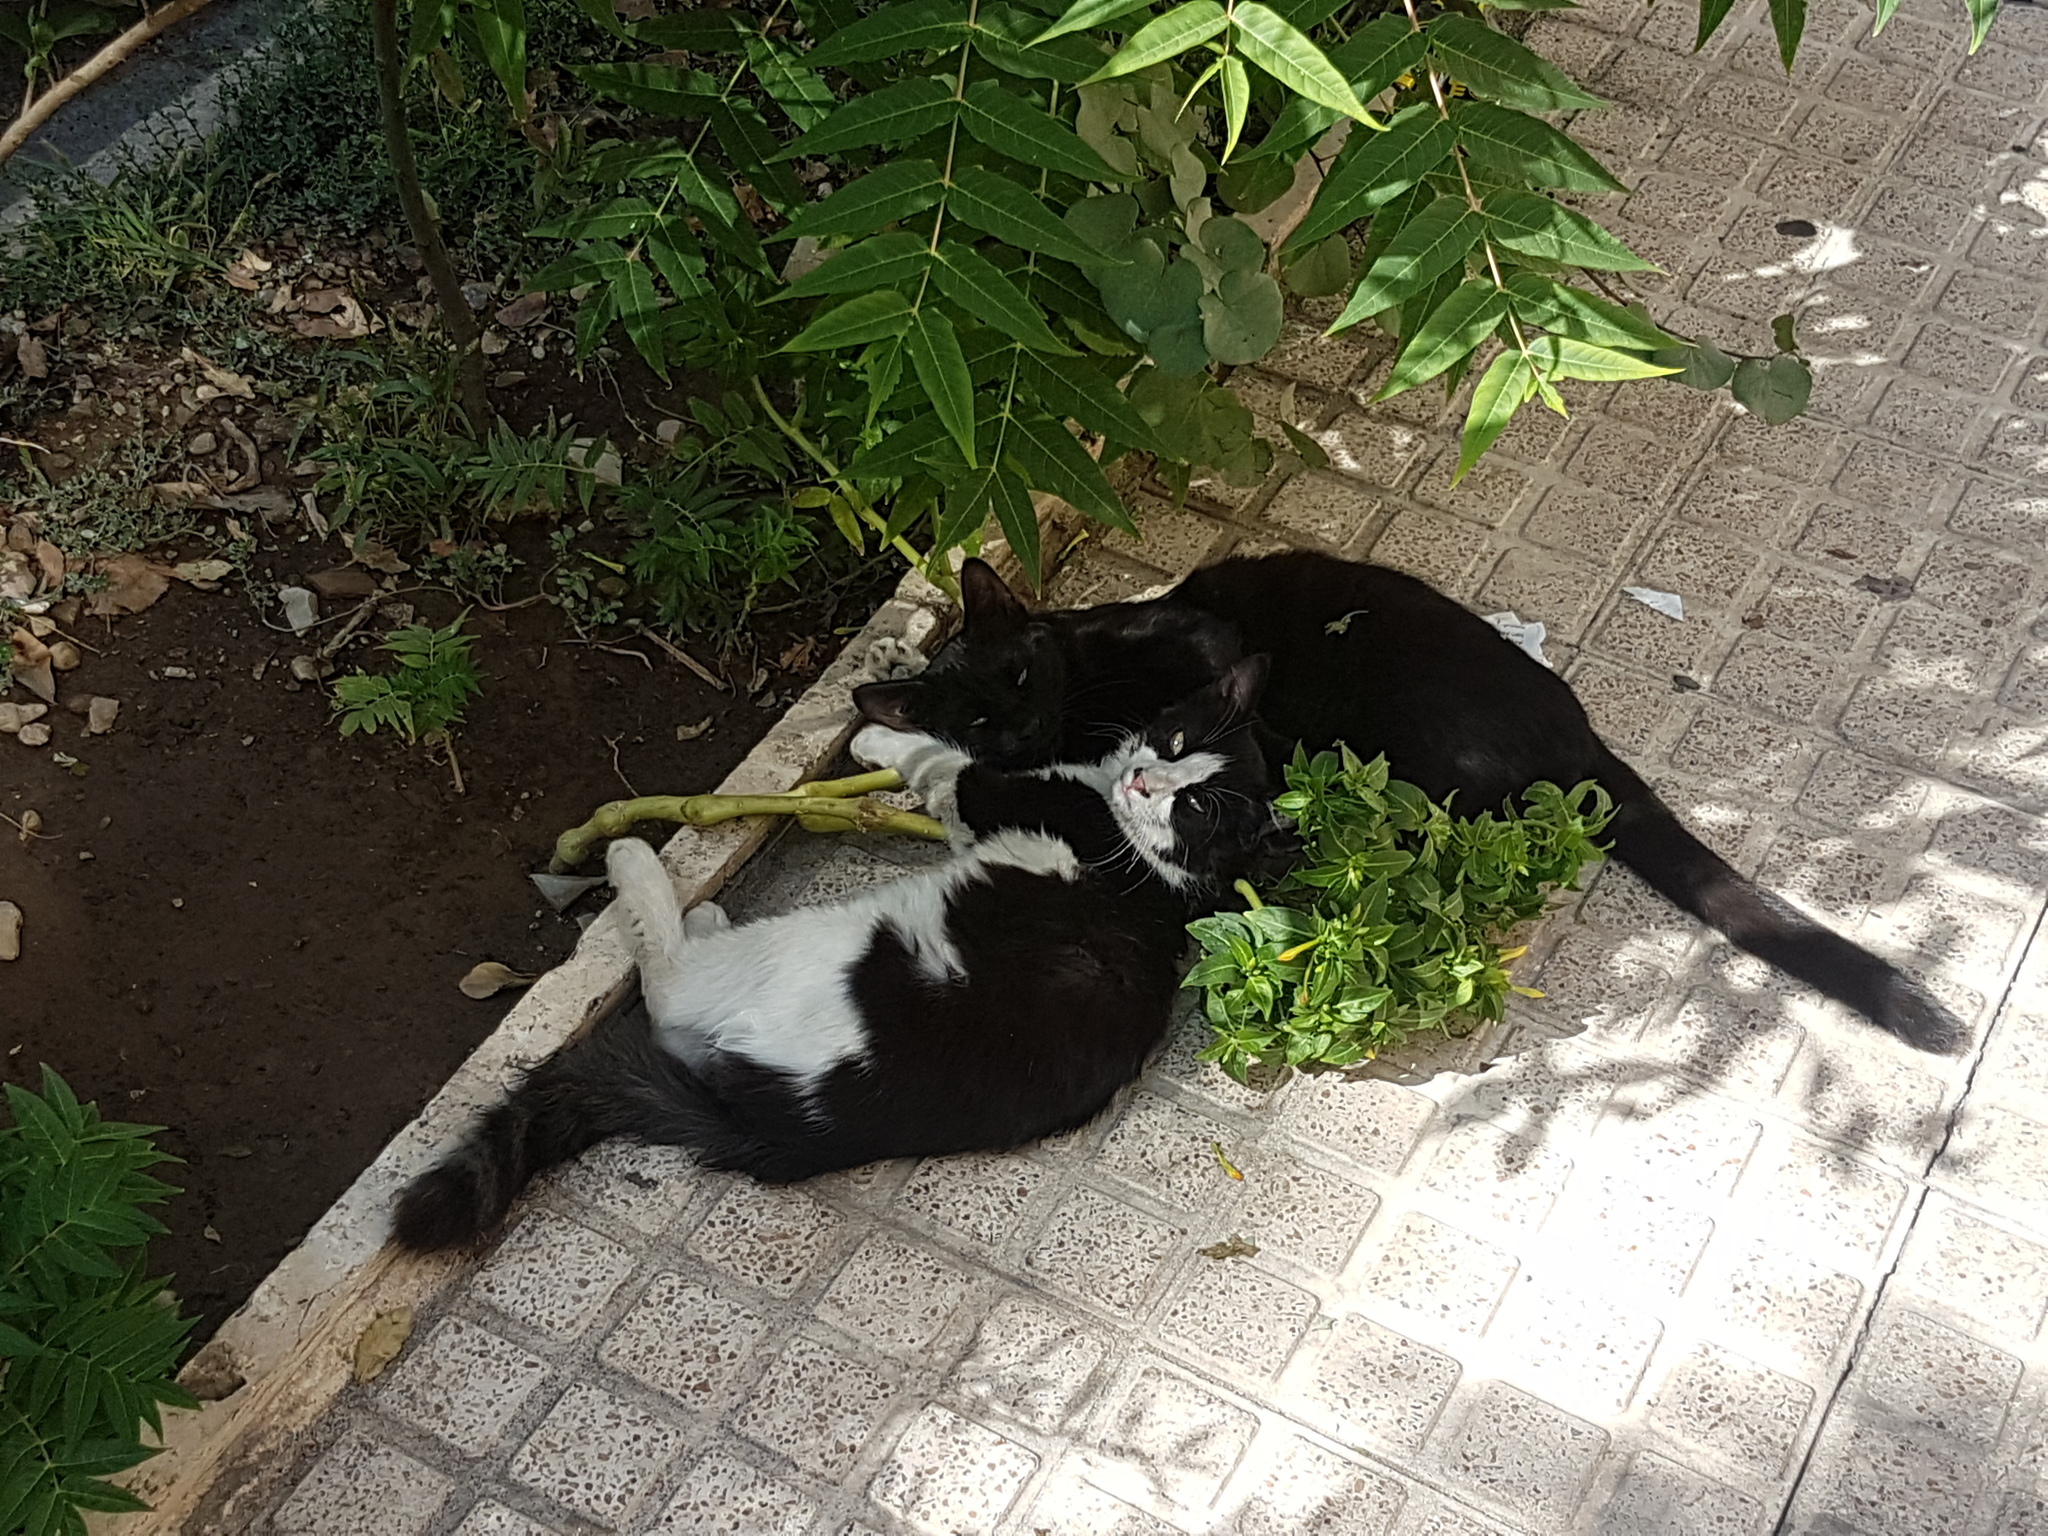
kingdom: Animalia
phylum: Chordata
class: Mammalia
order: Carnivora
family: Felidae
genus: Felis
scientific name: Felis catus
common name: Domestic cat
